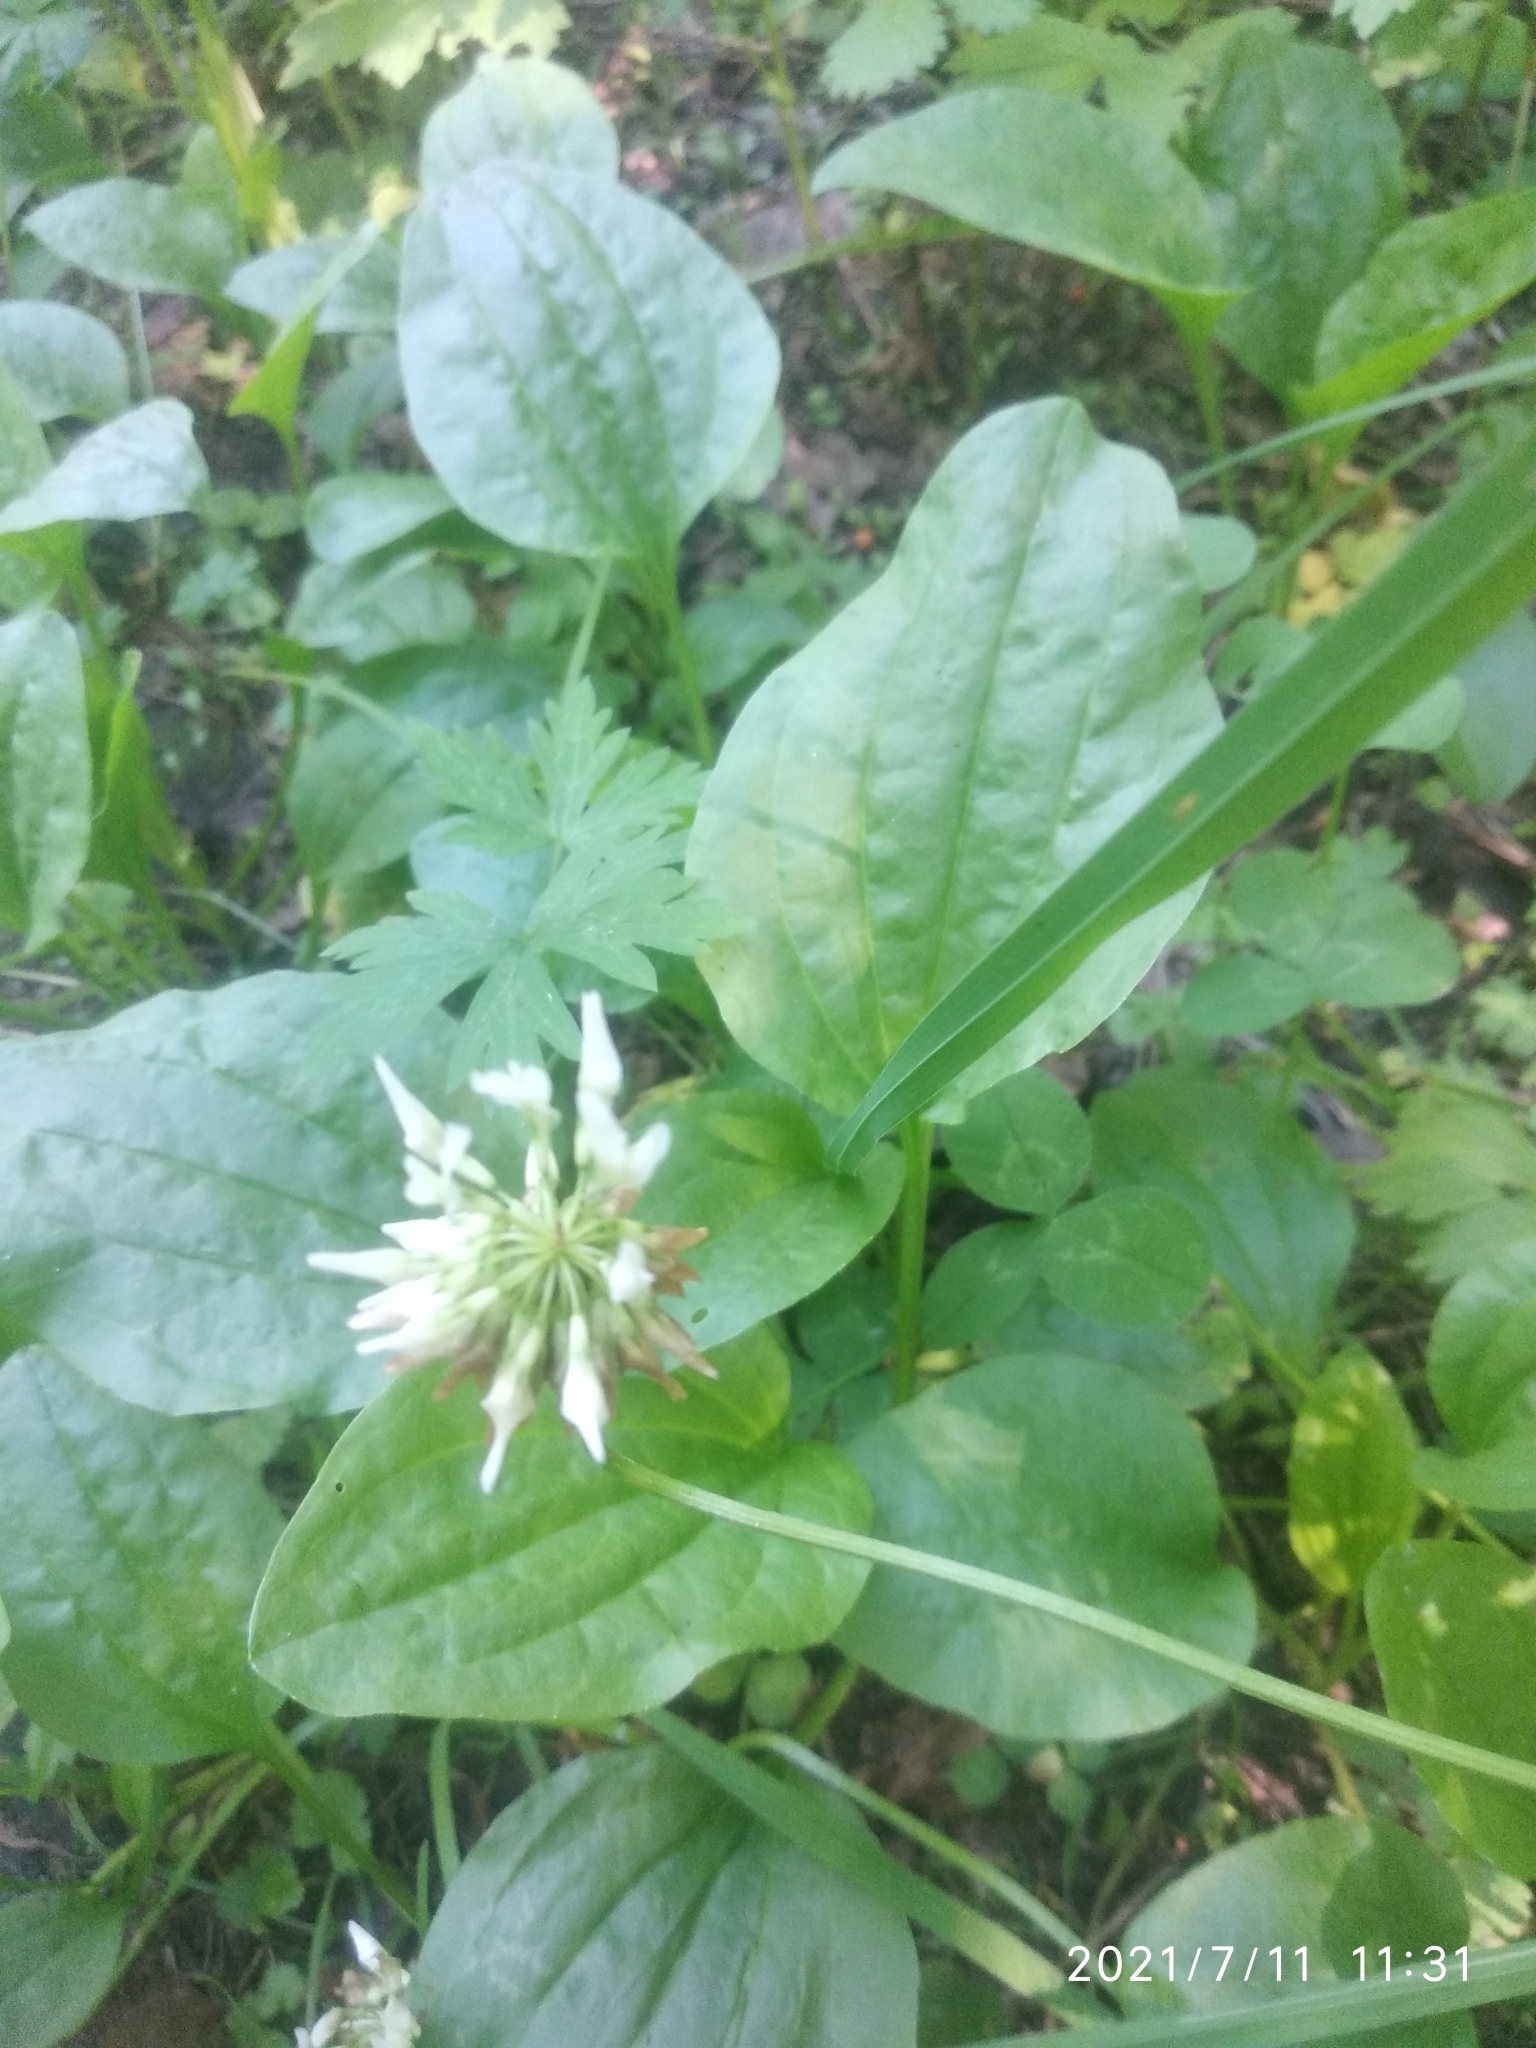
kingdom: Plantae
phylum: Tracheophyta
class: Magnoliopsida
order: Fabales
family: Fabaceae
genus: Trifolium
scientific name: Trifolium repens
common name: White clover
